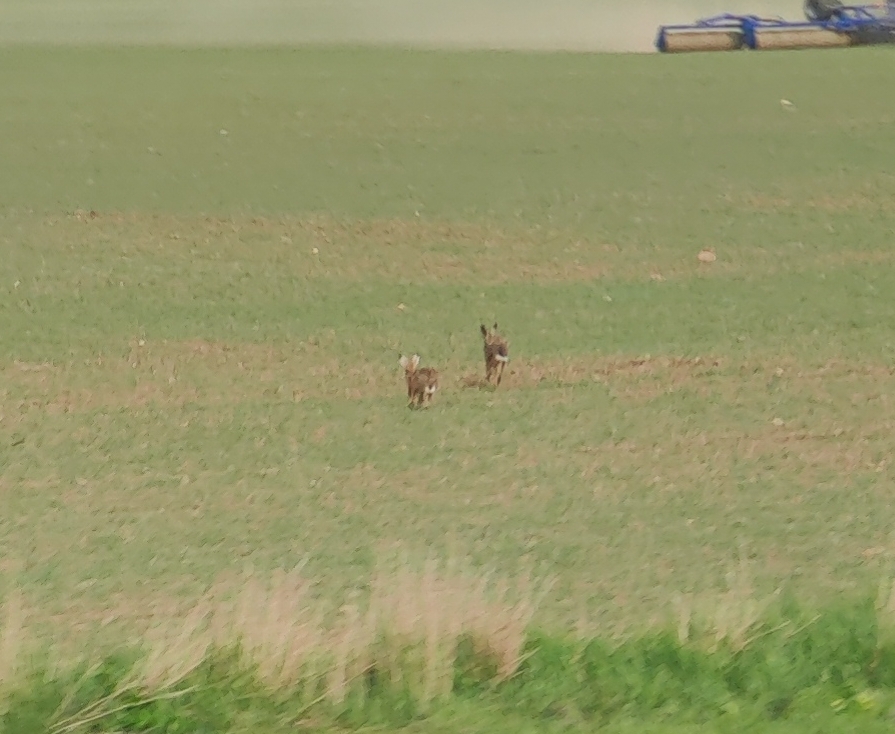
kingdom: Animalia
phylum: Chordata
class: Mammalia
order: Lagomorpha
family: Leporidae
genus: Lepus
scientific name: Lepus europaeus
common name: European hare
